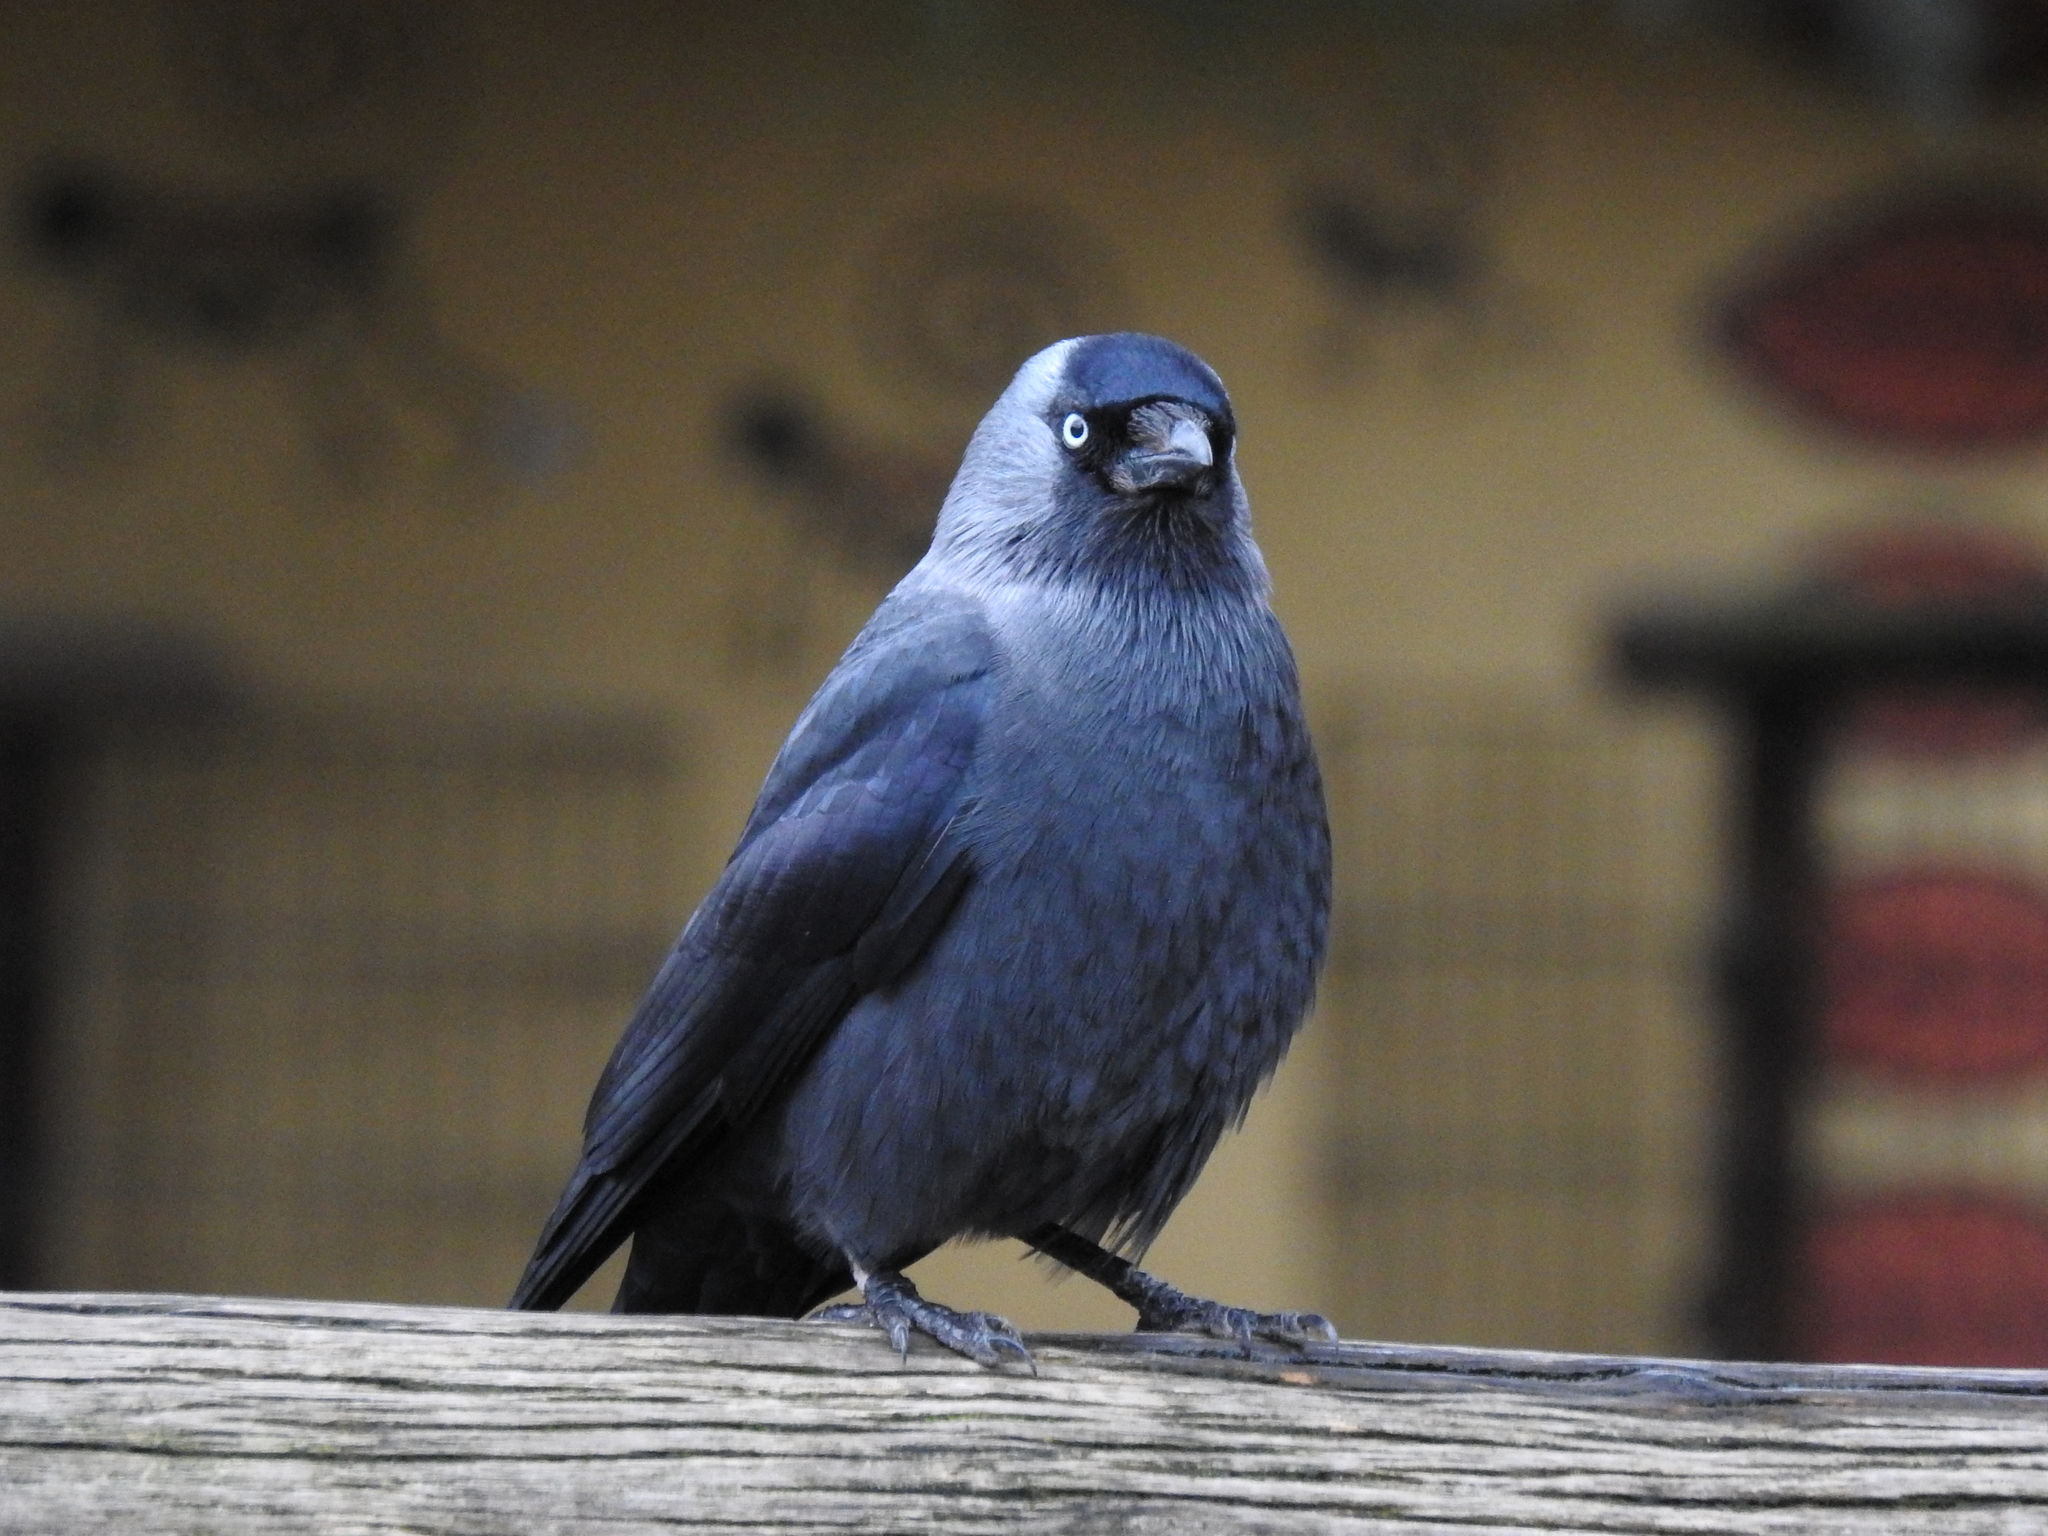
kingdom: Animalia
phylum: Chordata
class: Aves
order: Passeriformes
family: Corvidae
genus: Coloeus
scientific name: Coloeus monedula
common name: Western jackdaw
